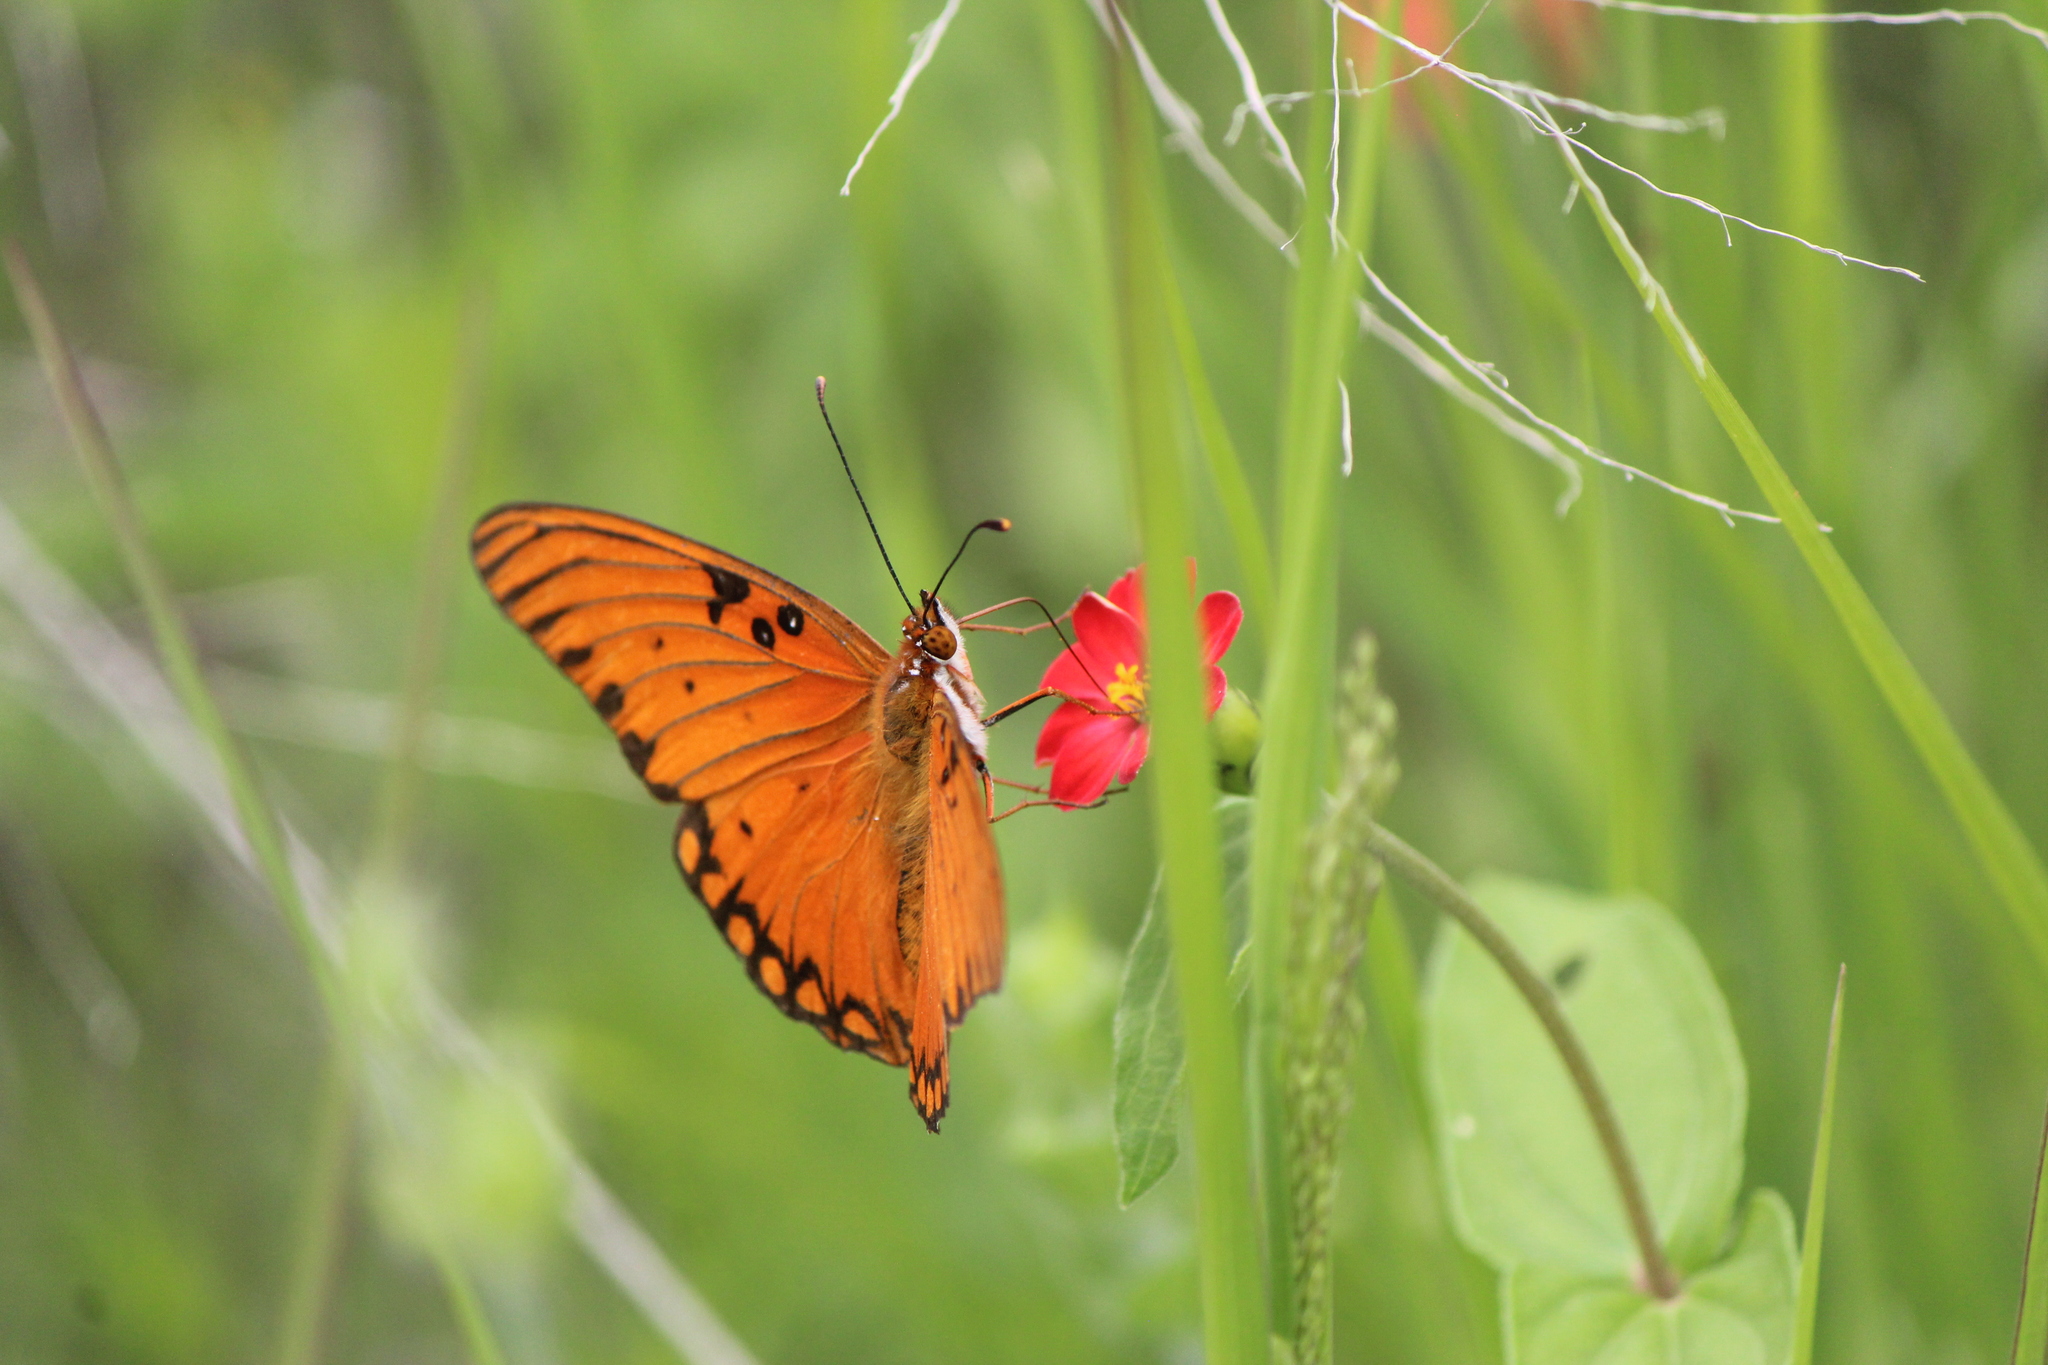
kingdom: Animalia
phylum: Arthropoda
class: Insecta
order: Lepidoptera
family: Nymphalidae
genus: Dione
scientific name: Dione vanillae
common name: Gulf fritillary
